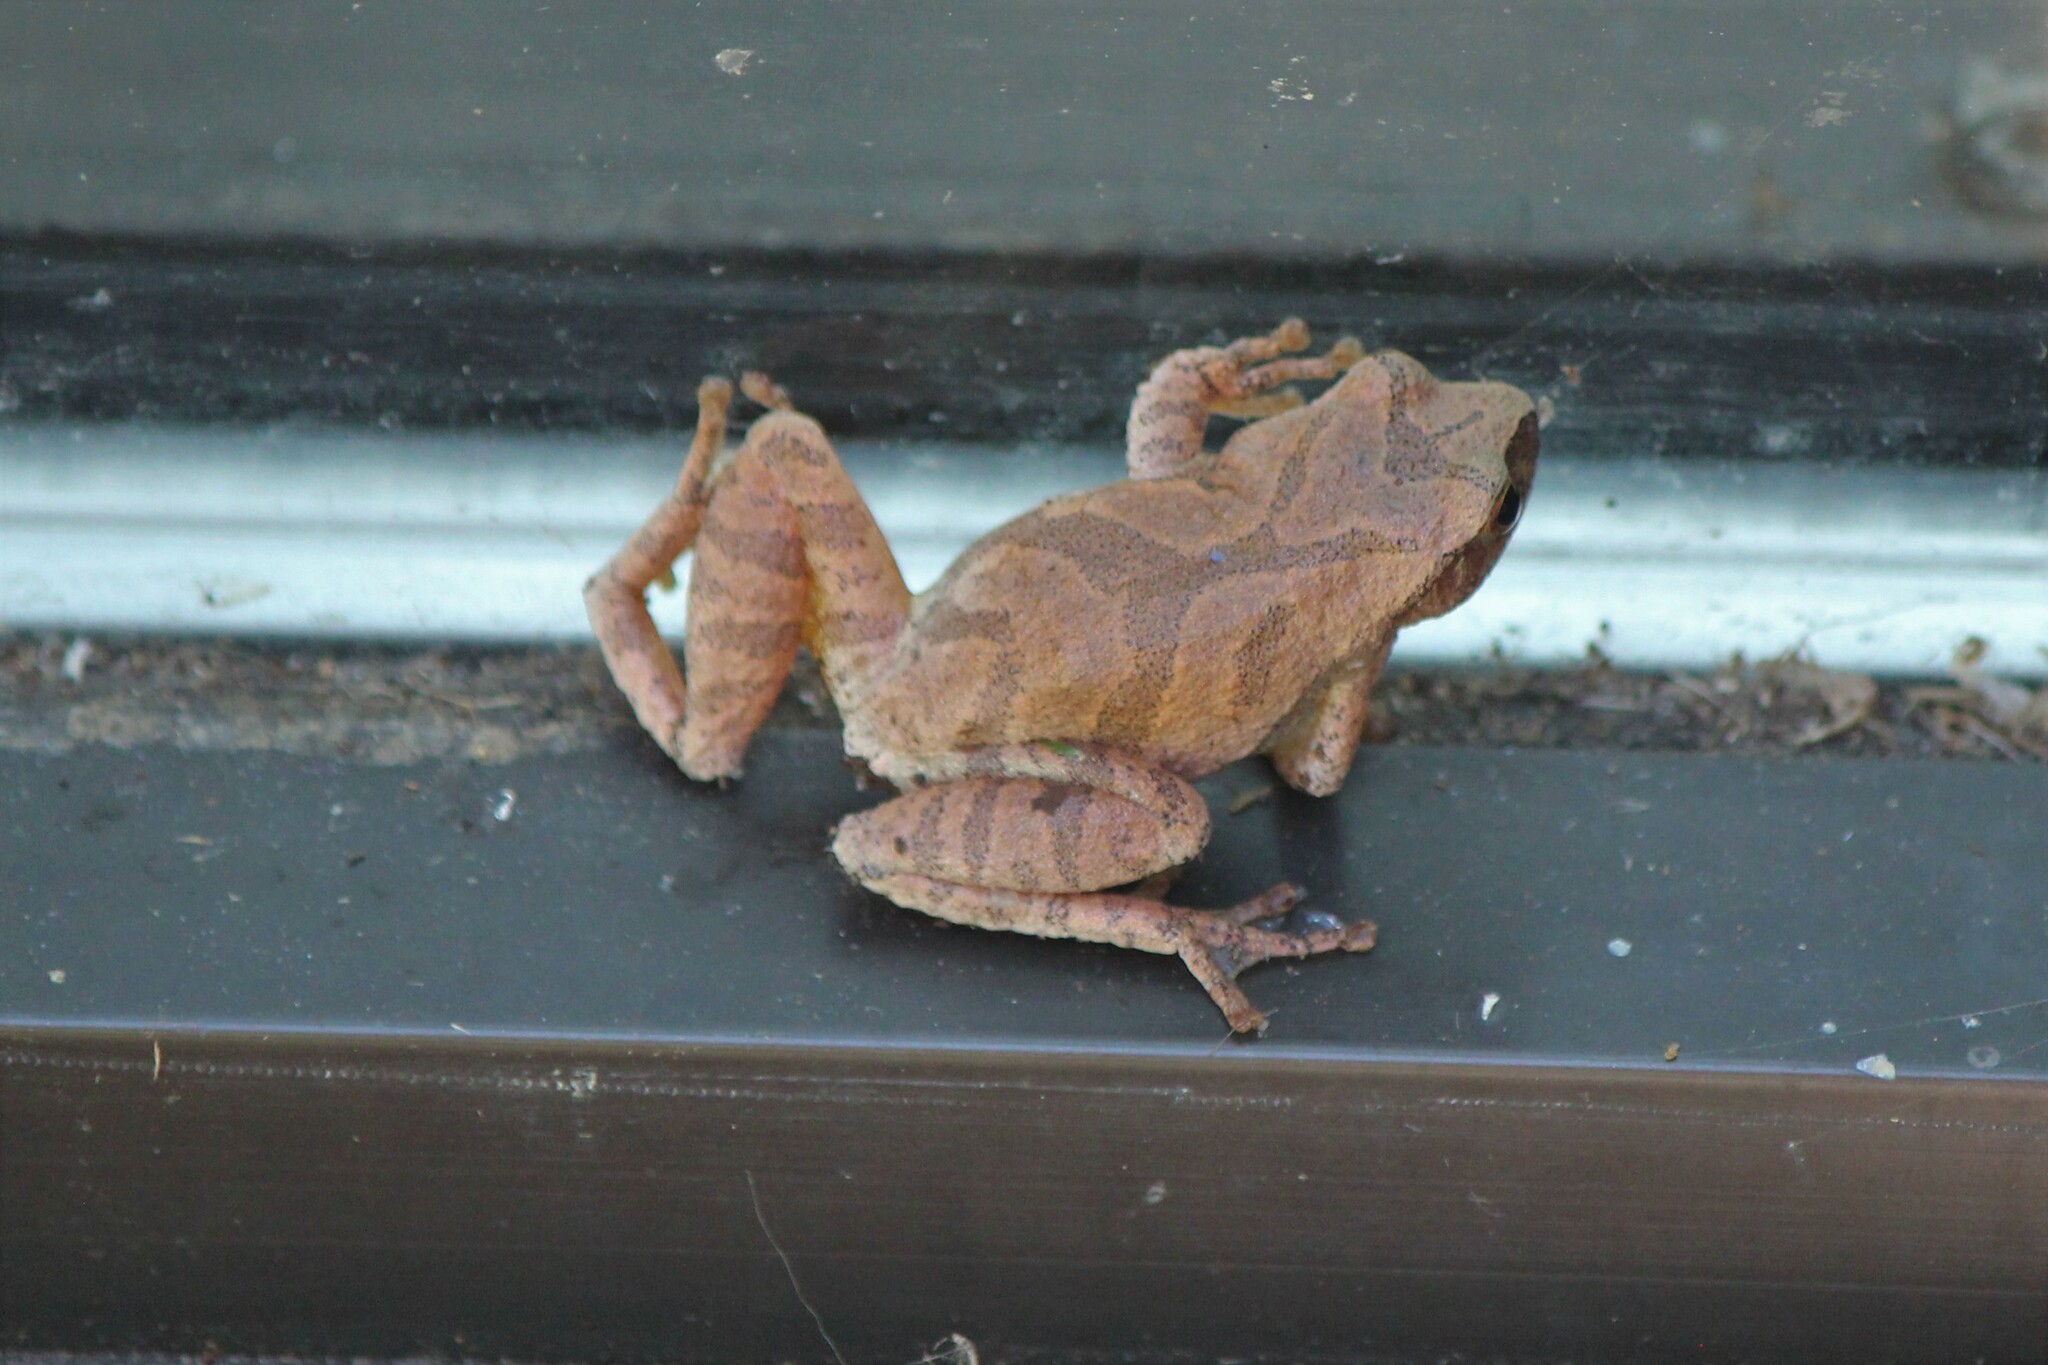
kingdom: Animalia
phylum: Chordata
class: Amphibia
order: Anura
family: Hylidae
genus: Pseudacris
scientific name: Pseudacris crucifer
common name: Spring peeper
